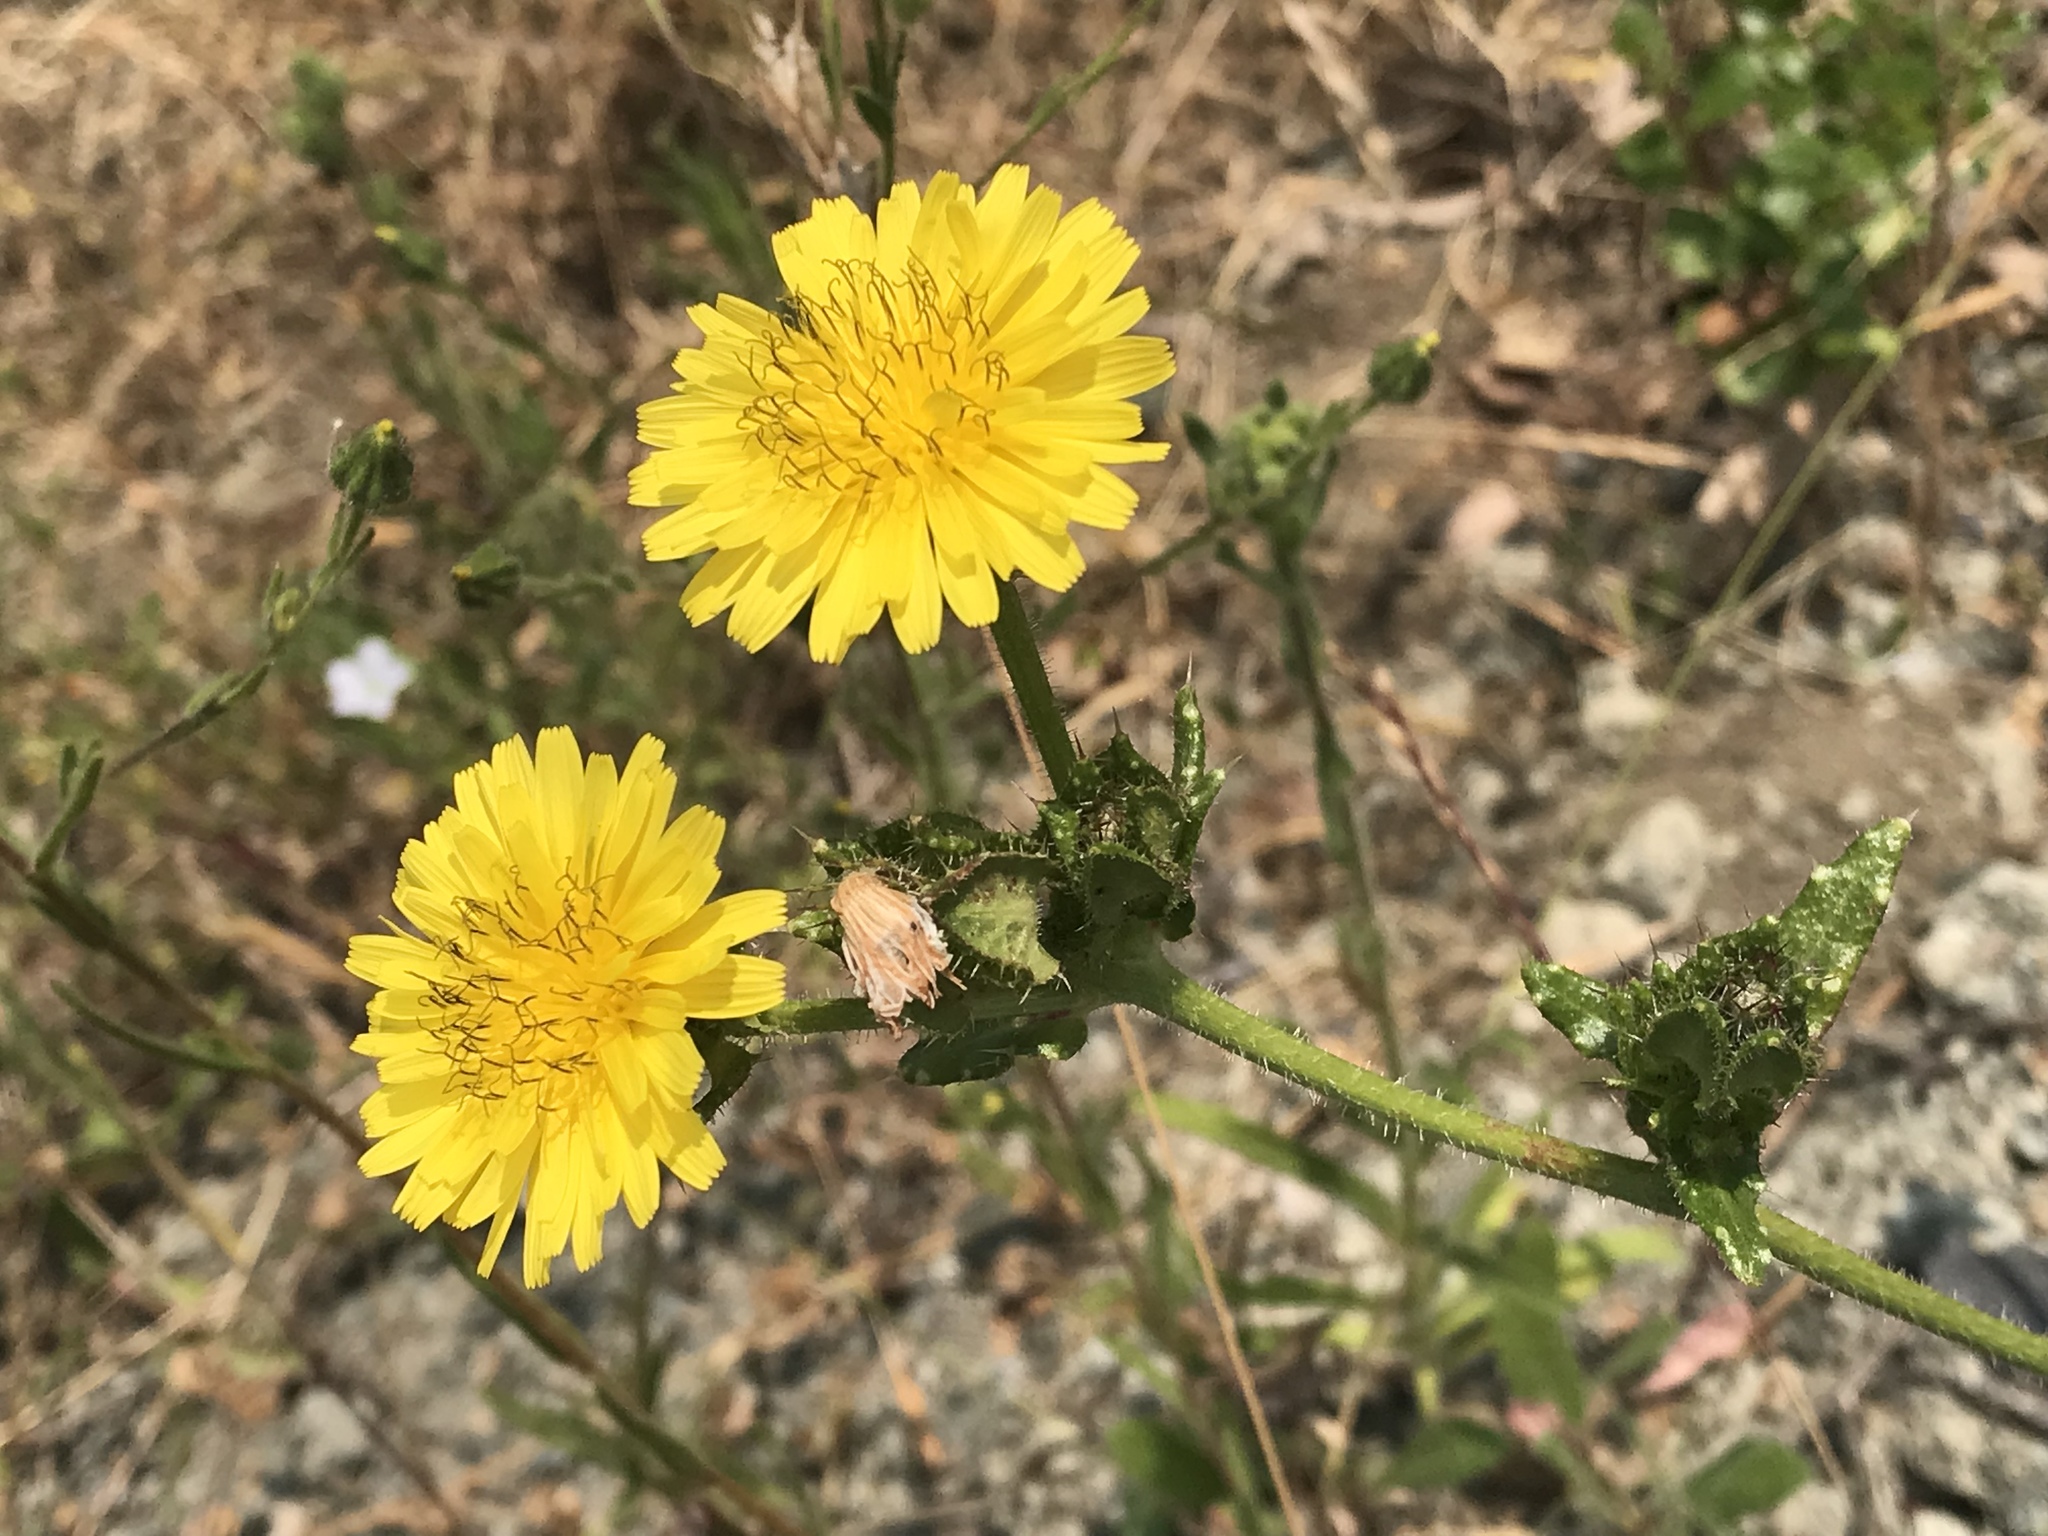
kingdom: Plantae
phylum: Tracheophyta
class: Magnoliopsida
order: Asterales
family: Asteraceae
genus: Helminthotheca
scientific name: Helminthotheca echioides
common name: Ox-tongue
